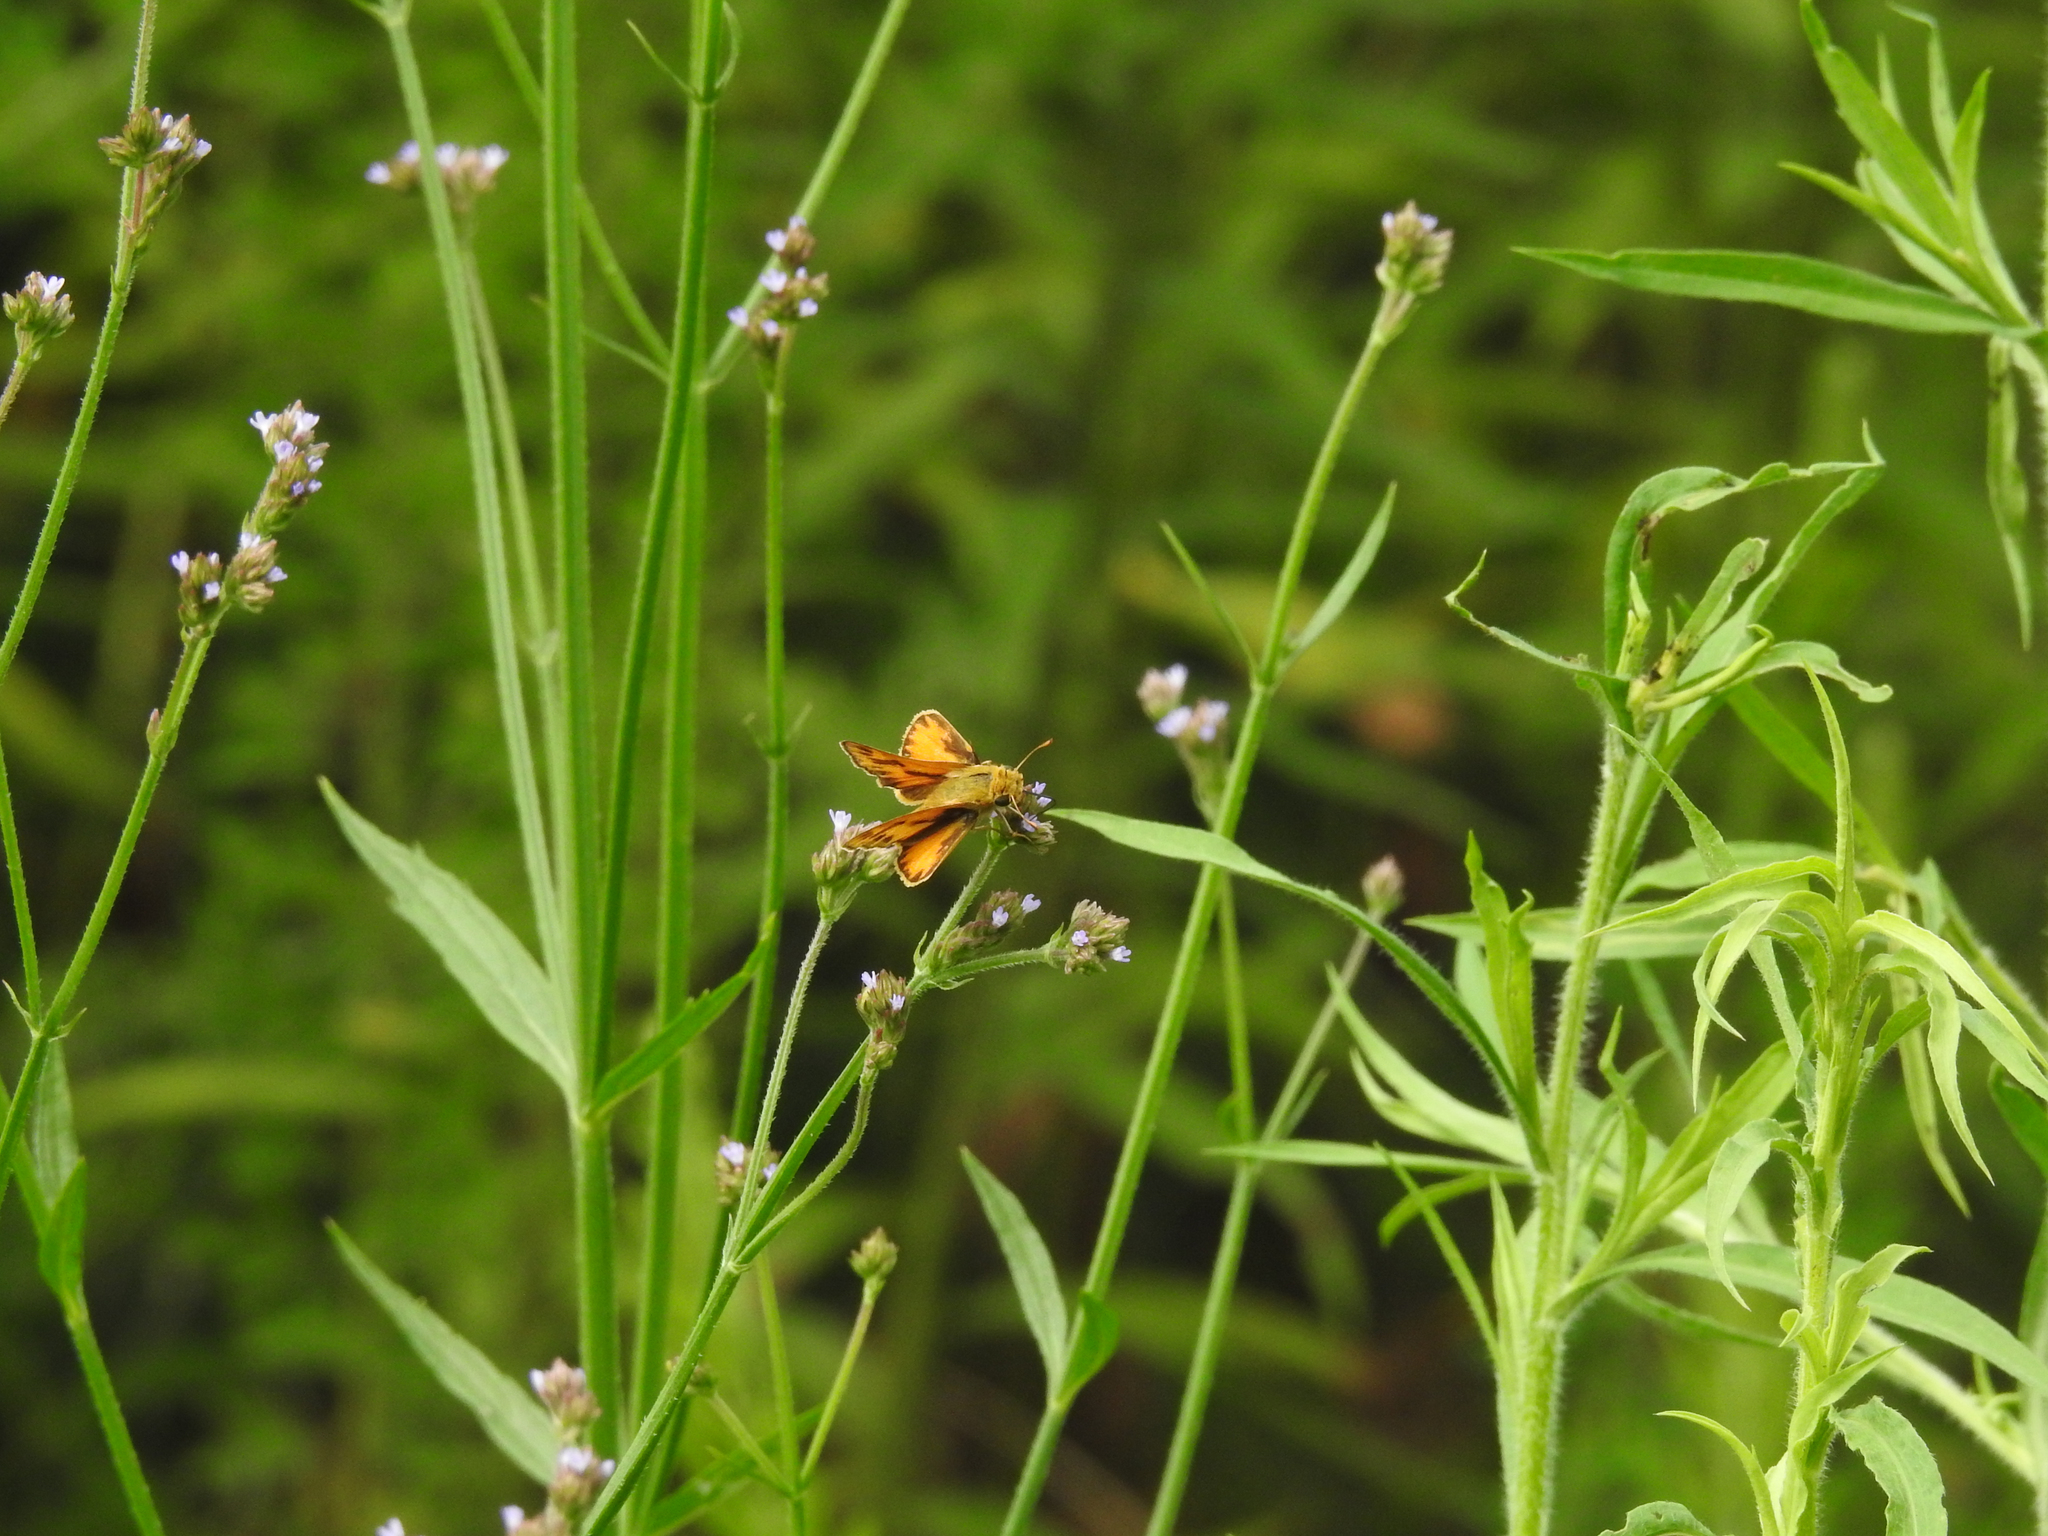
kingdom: Animalia
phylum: Arthropoda
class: Insecta
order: Lepidoptera
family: Hesperiidae
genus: Hylephila
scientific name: Hylephila phyleus
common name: Fiery skipper
